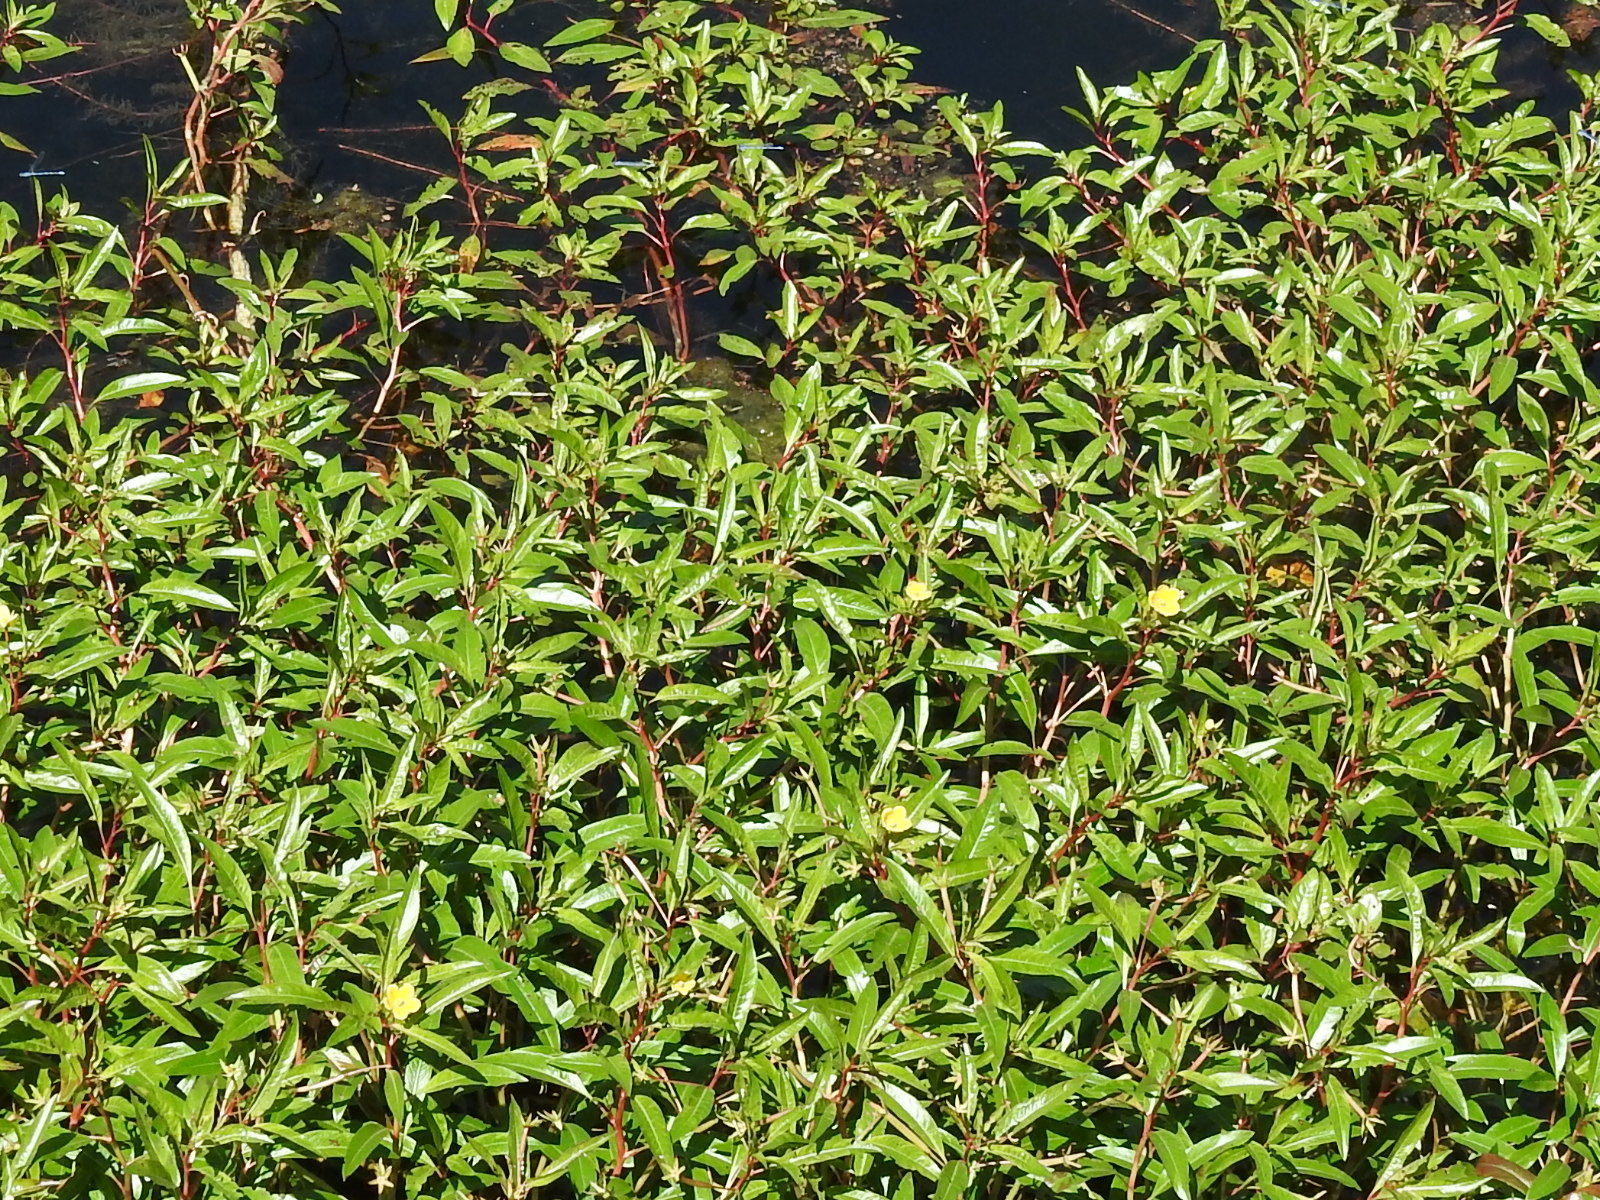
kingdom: Plantae
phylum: Tracheophyta
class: Magnoliopsida
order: Myrtales
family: Onagraceae
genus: Ludwigia
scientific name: Ludwigia peploides
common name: Floating primrose-willow
